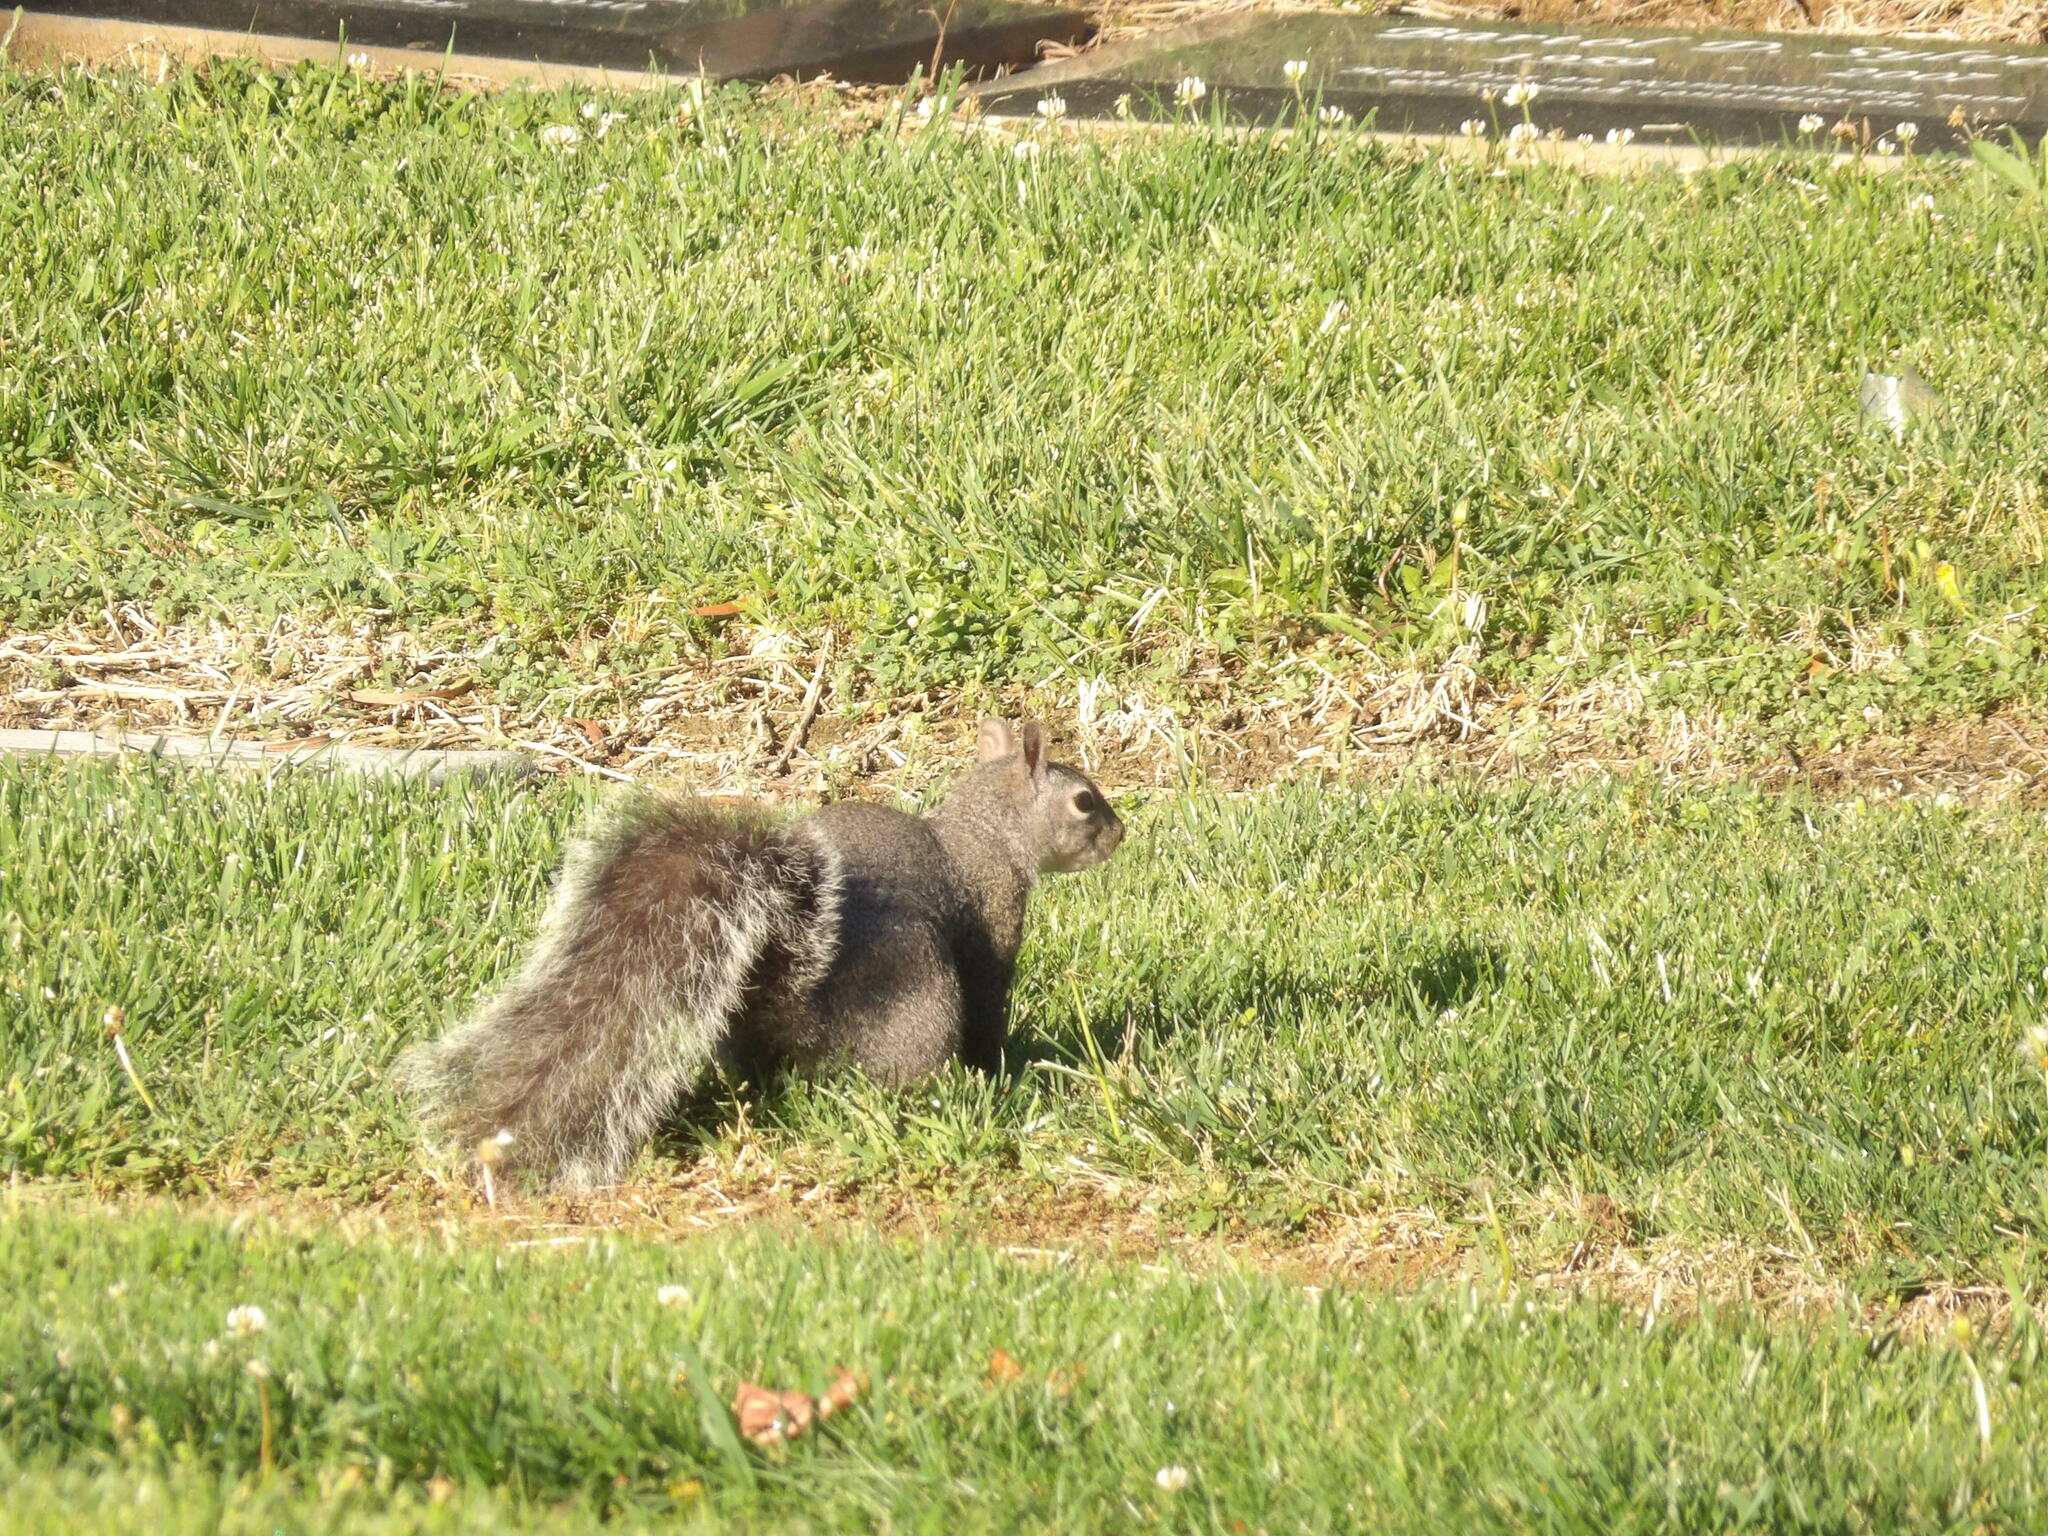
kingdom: Animalia
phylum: Chordata
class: Mammalia
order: Rodentia
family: Sciuridae
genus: Sciurus
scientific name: Sciurus griseus
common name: Western gray squirrel
